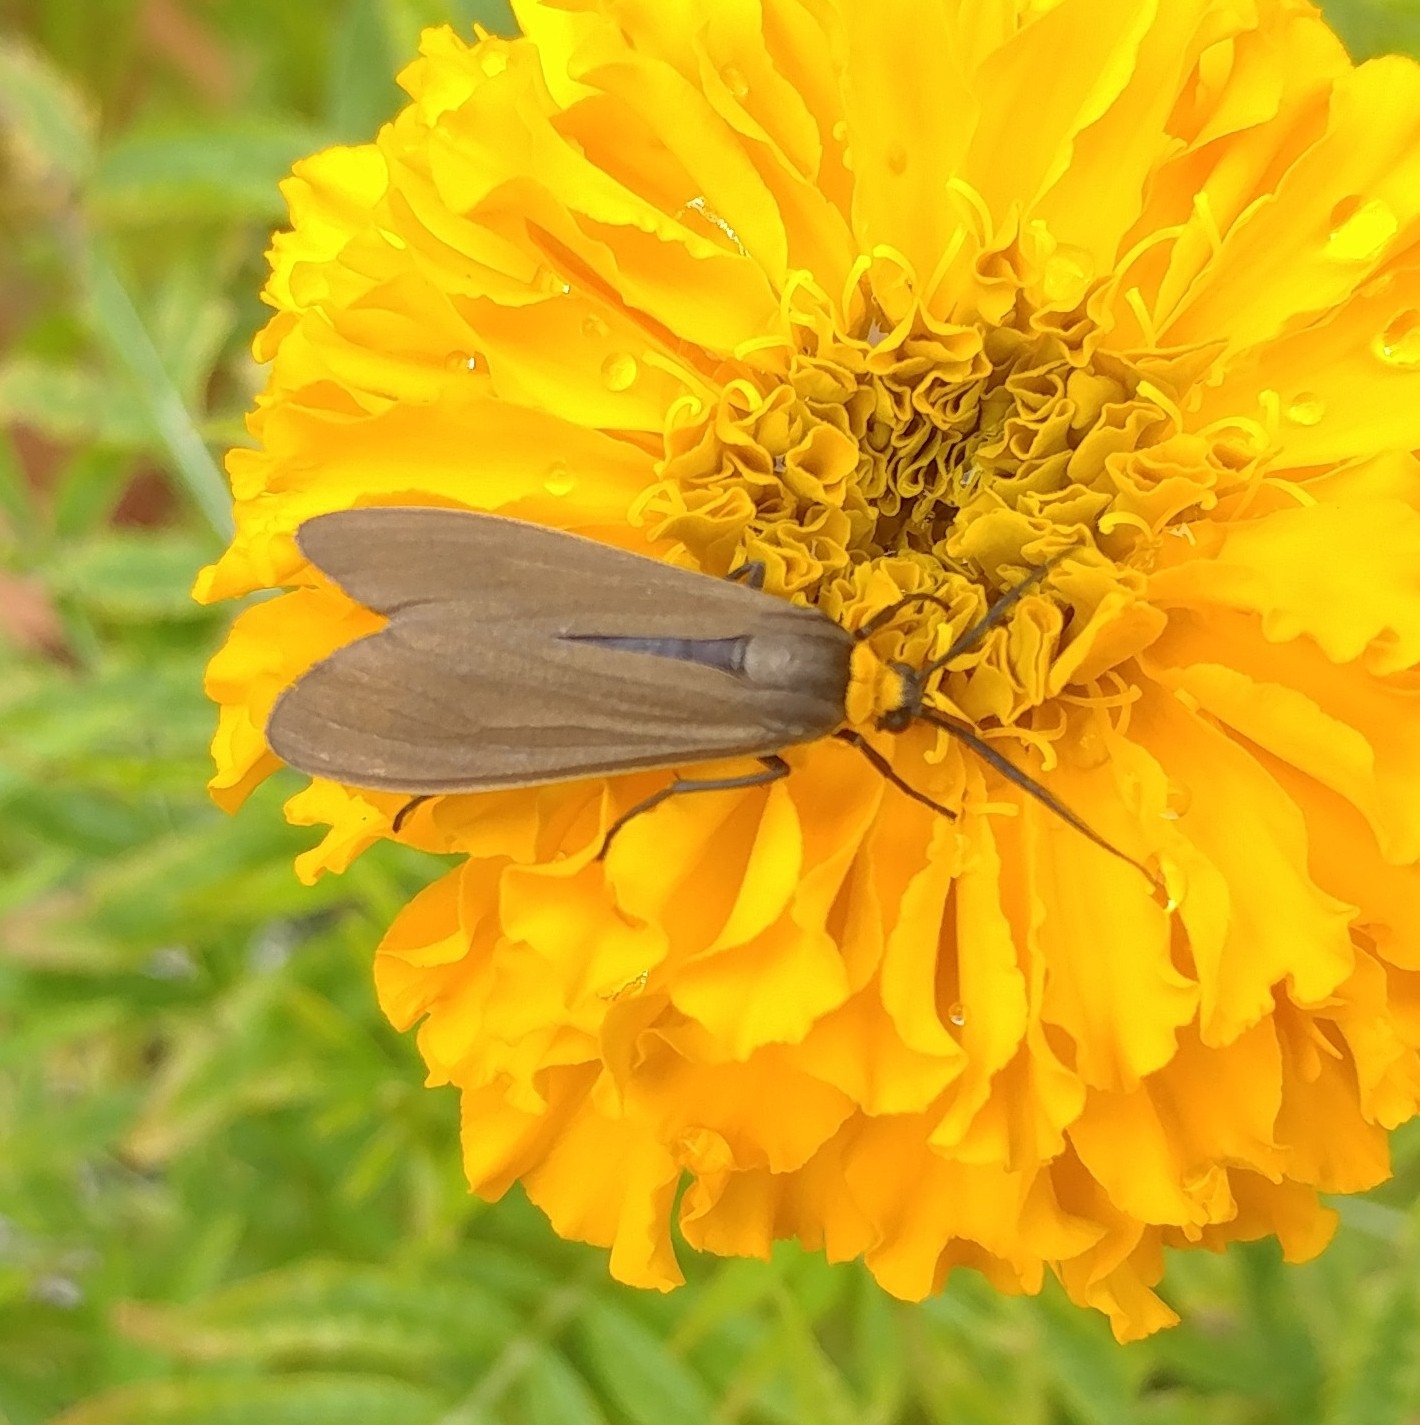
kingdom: Animalia
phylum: Arthropoda
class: Insecta
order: Lepidoptera
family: Erebidae
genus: Cisseps
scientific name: Cisseps fulvicollis
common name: Yellow-collared scape moth
